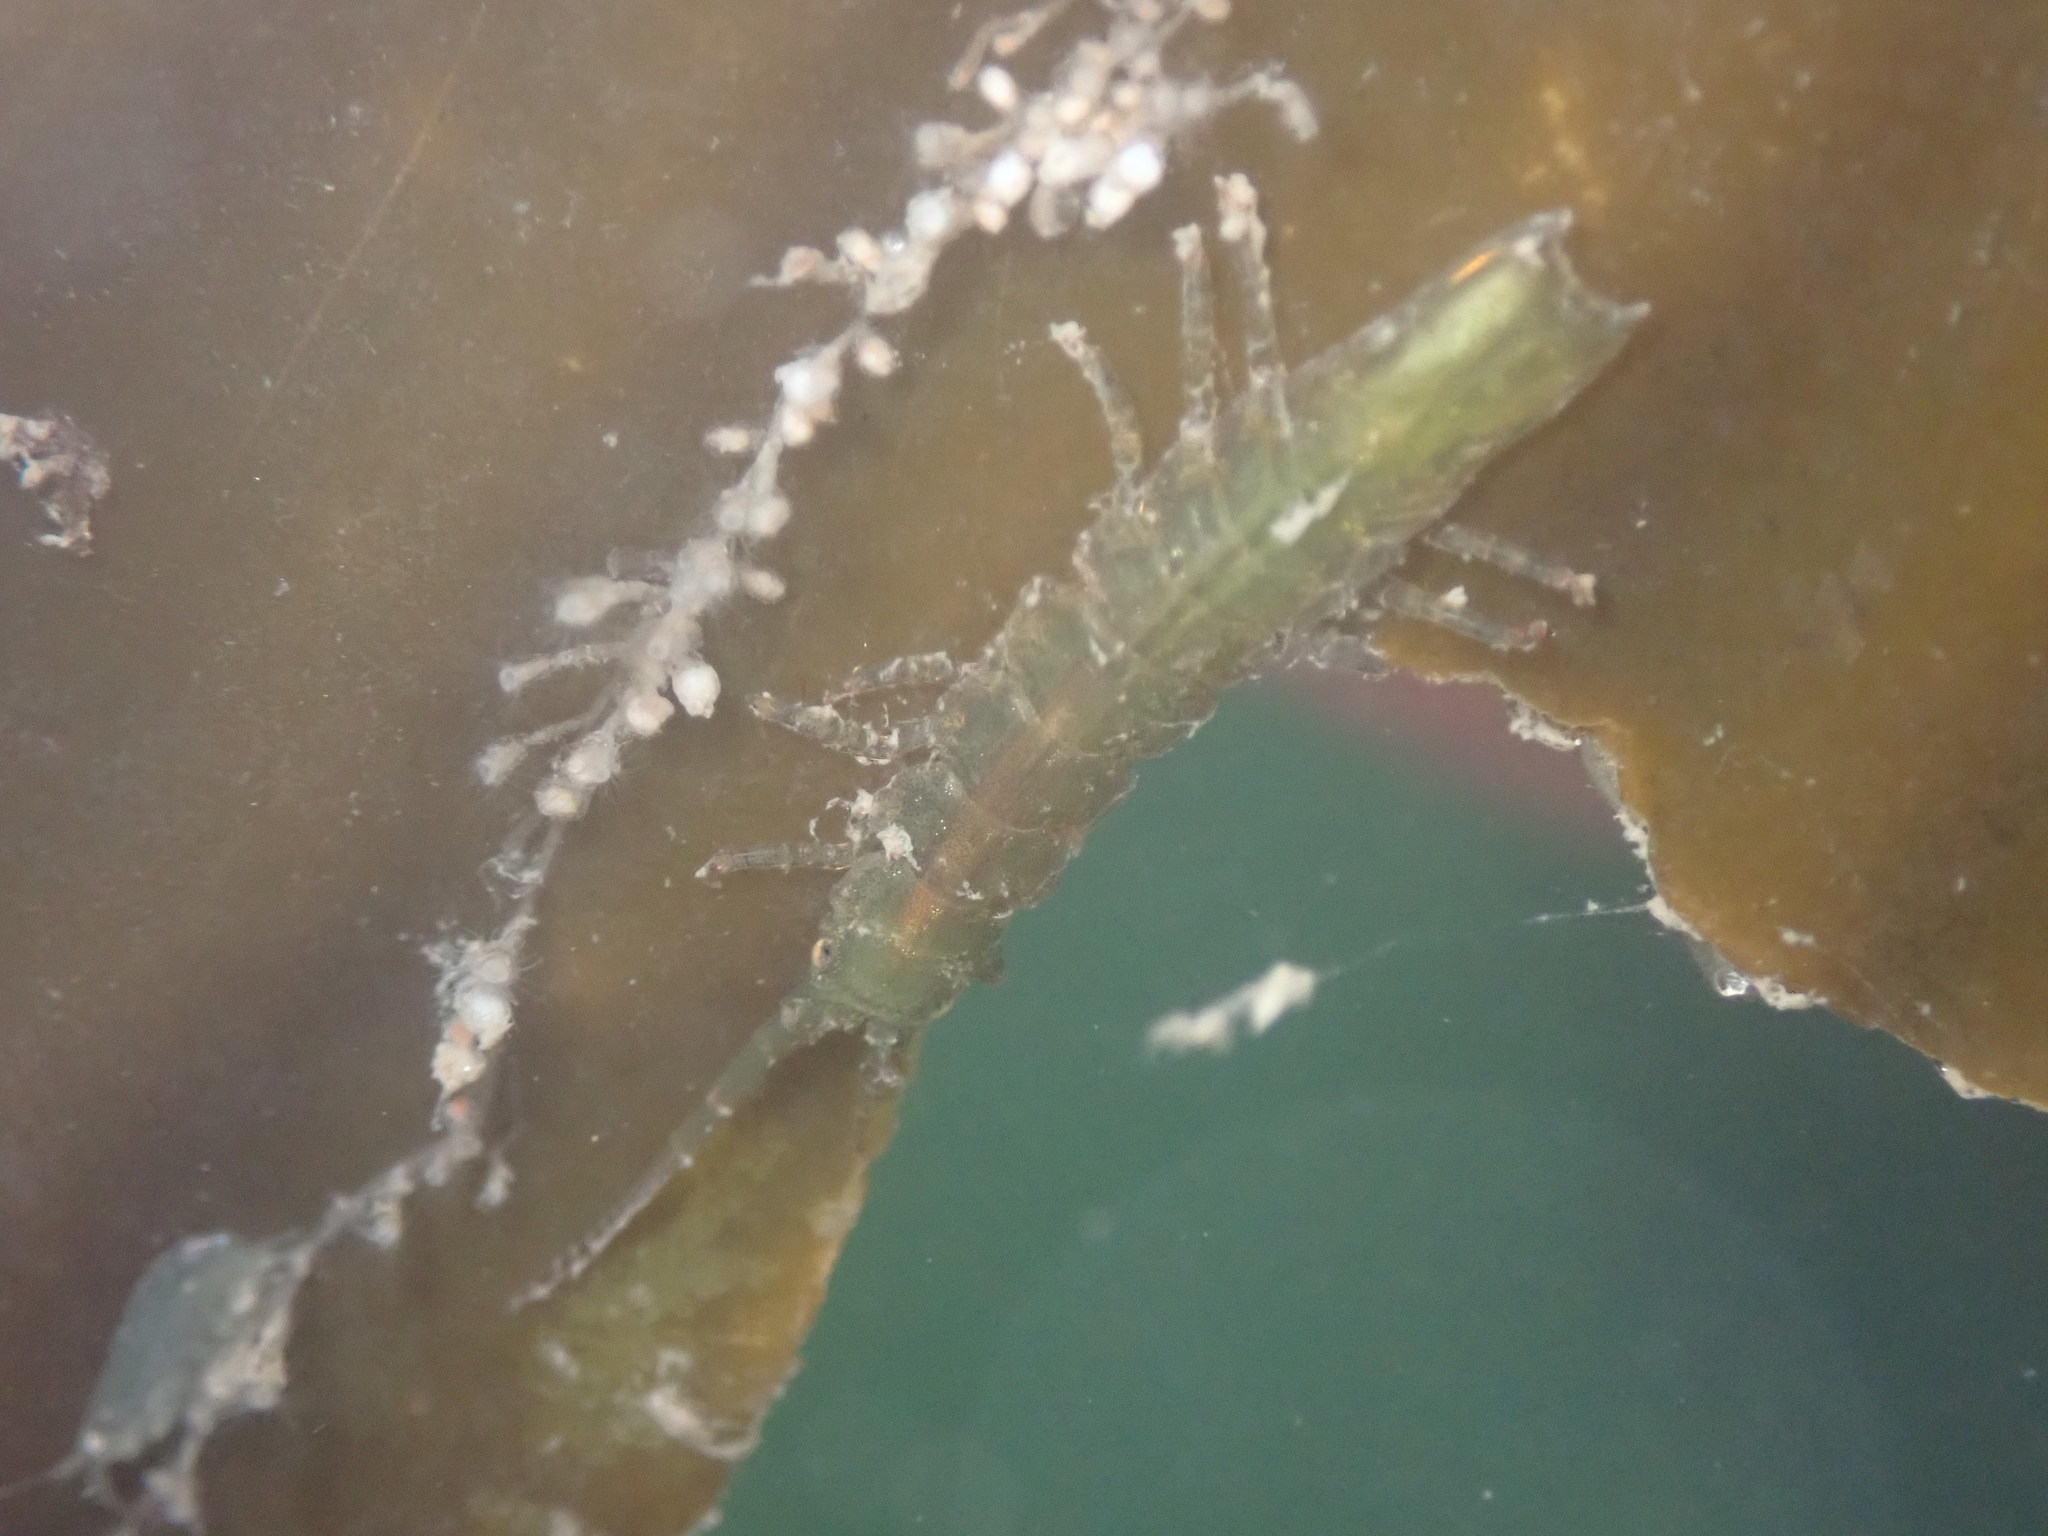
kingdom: Animalia
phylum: Arthropoda
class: Malacostraca
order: Isopoda
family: Idoteidae
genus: Pentidotea
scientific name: Pentidotea resecata
